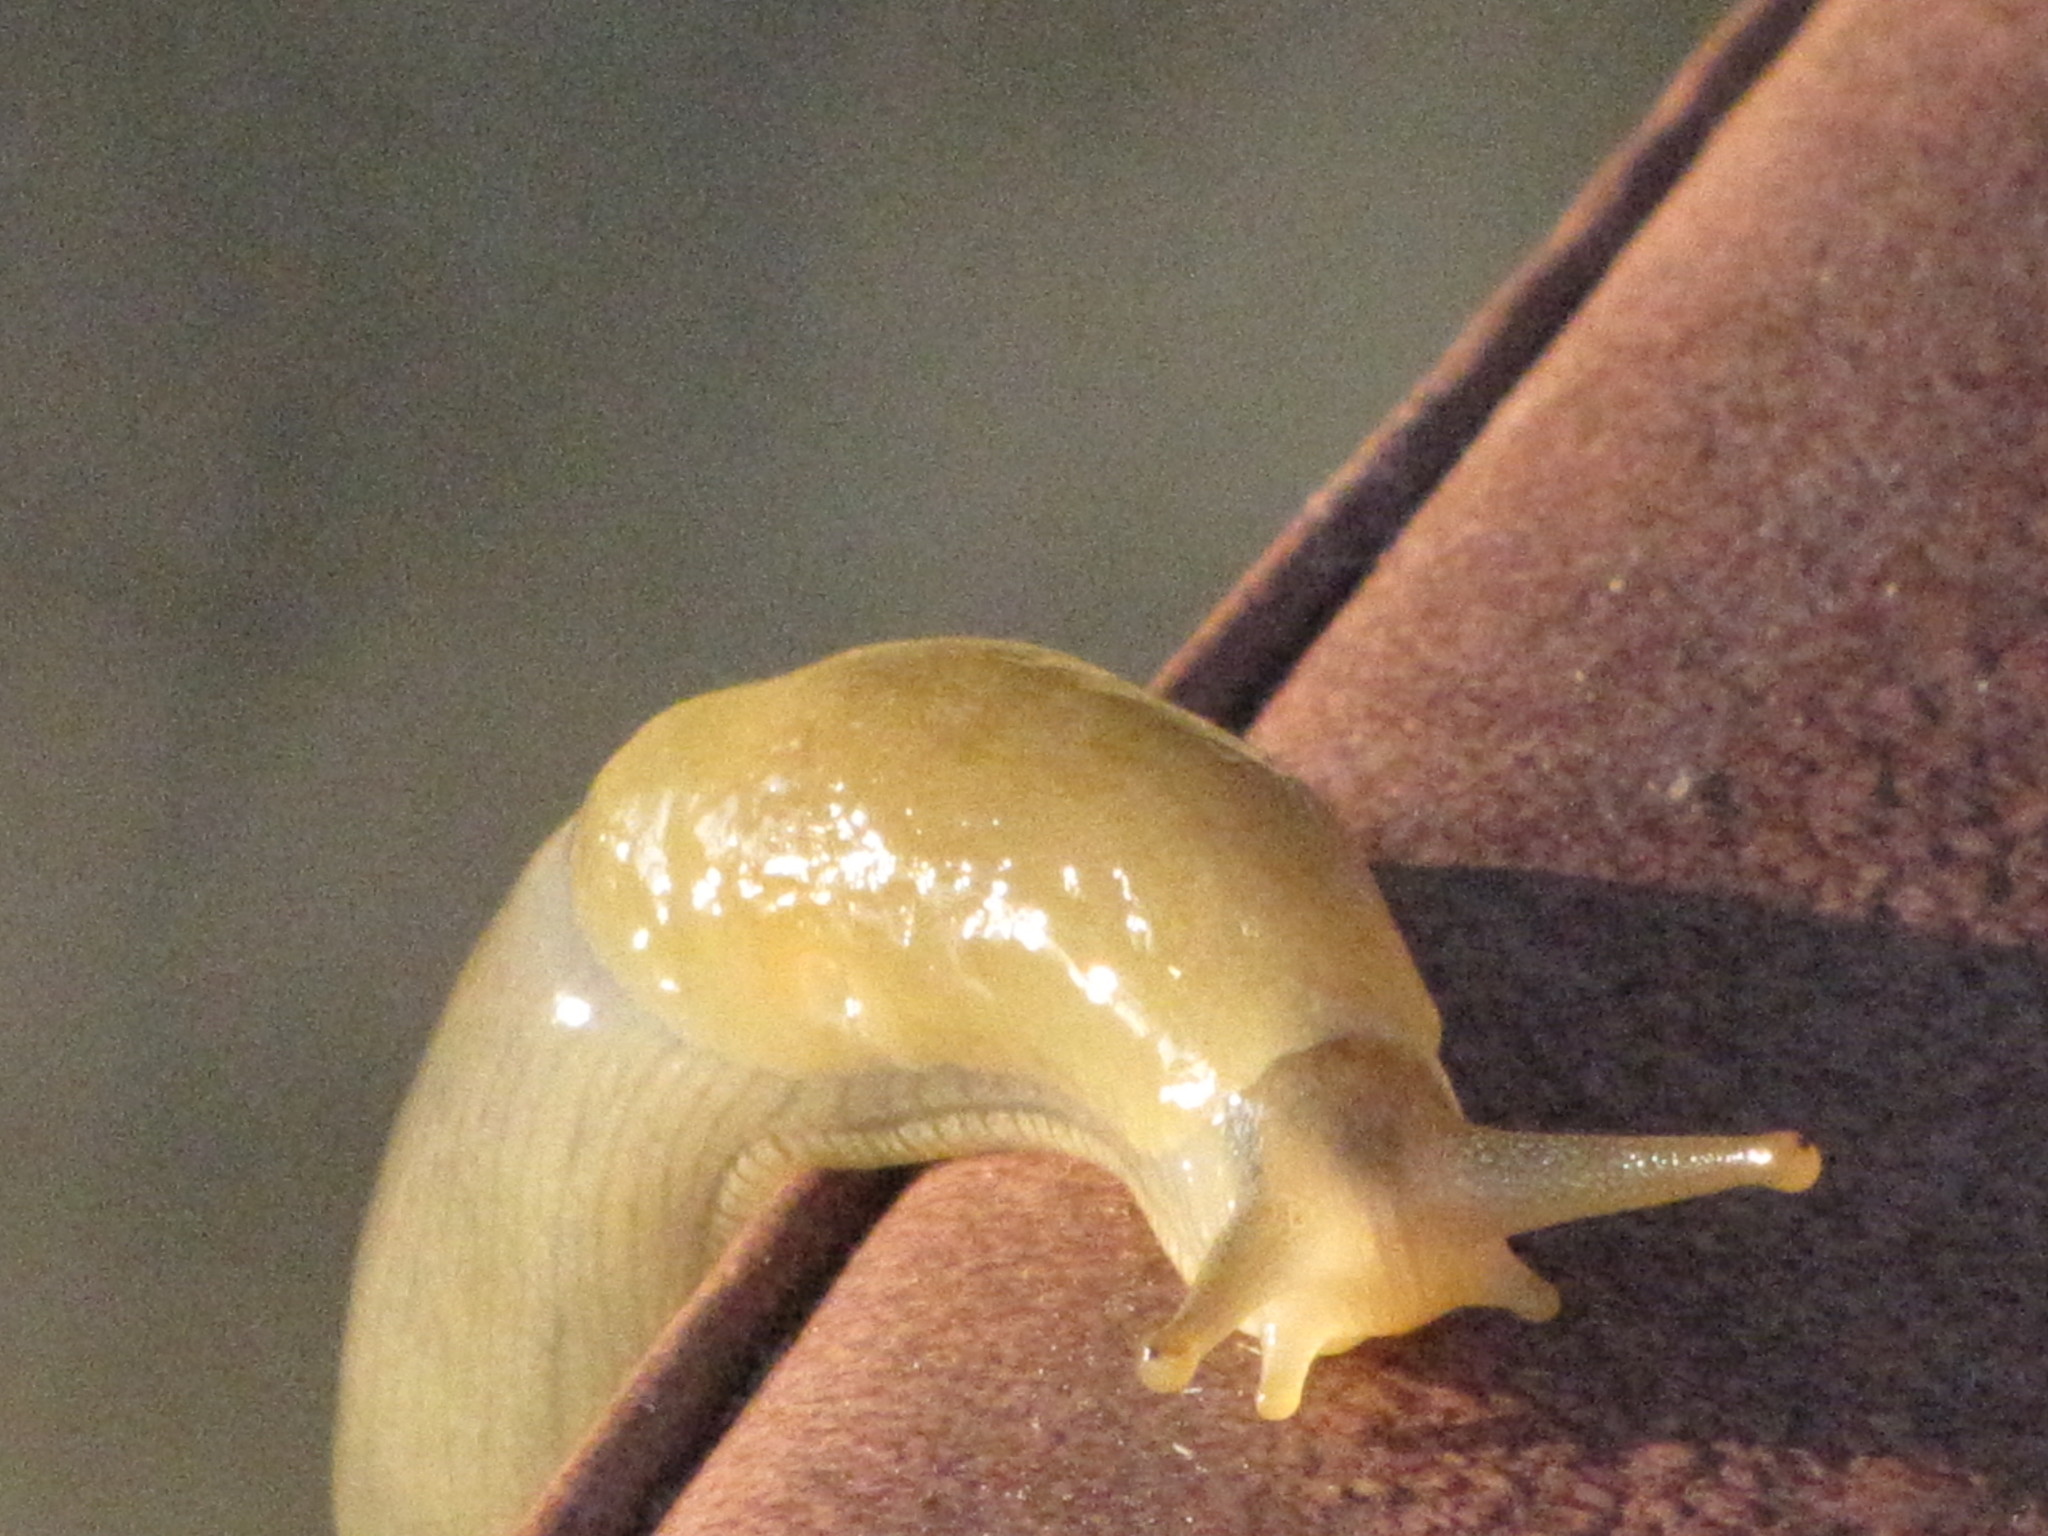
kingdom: Animalia
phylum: Mollusca
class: Gastropoda
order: Stylommatophora
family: Ariolimacidae
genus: Ariolimax
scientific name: Ariolimax columbianus
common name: Pacific banana slug
